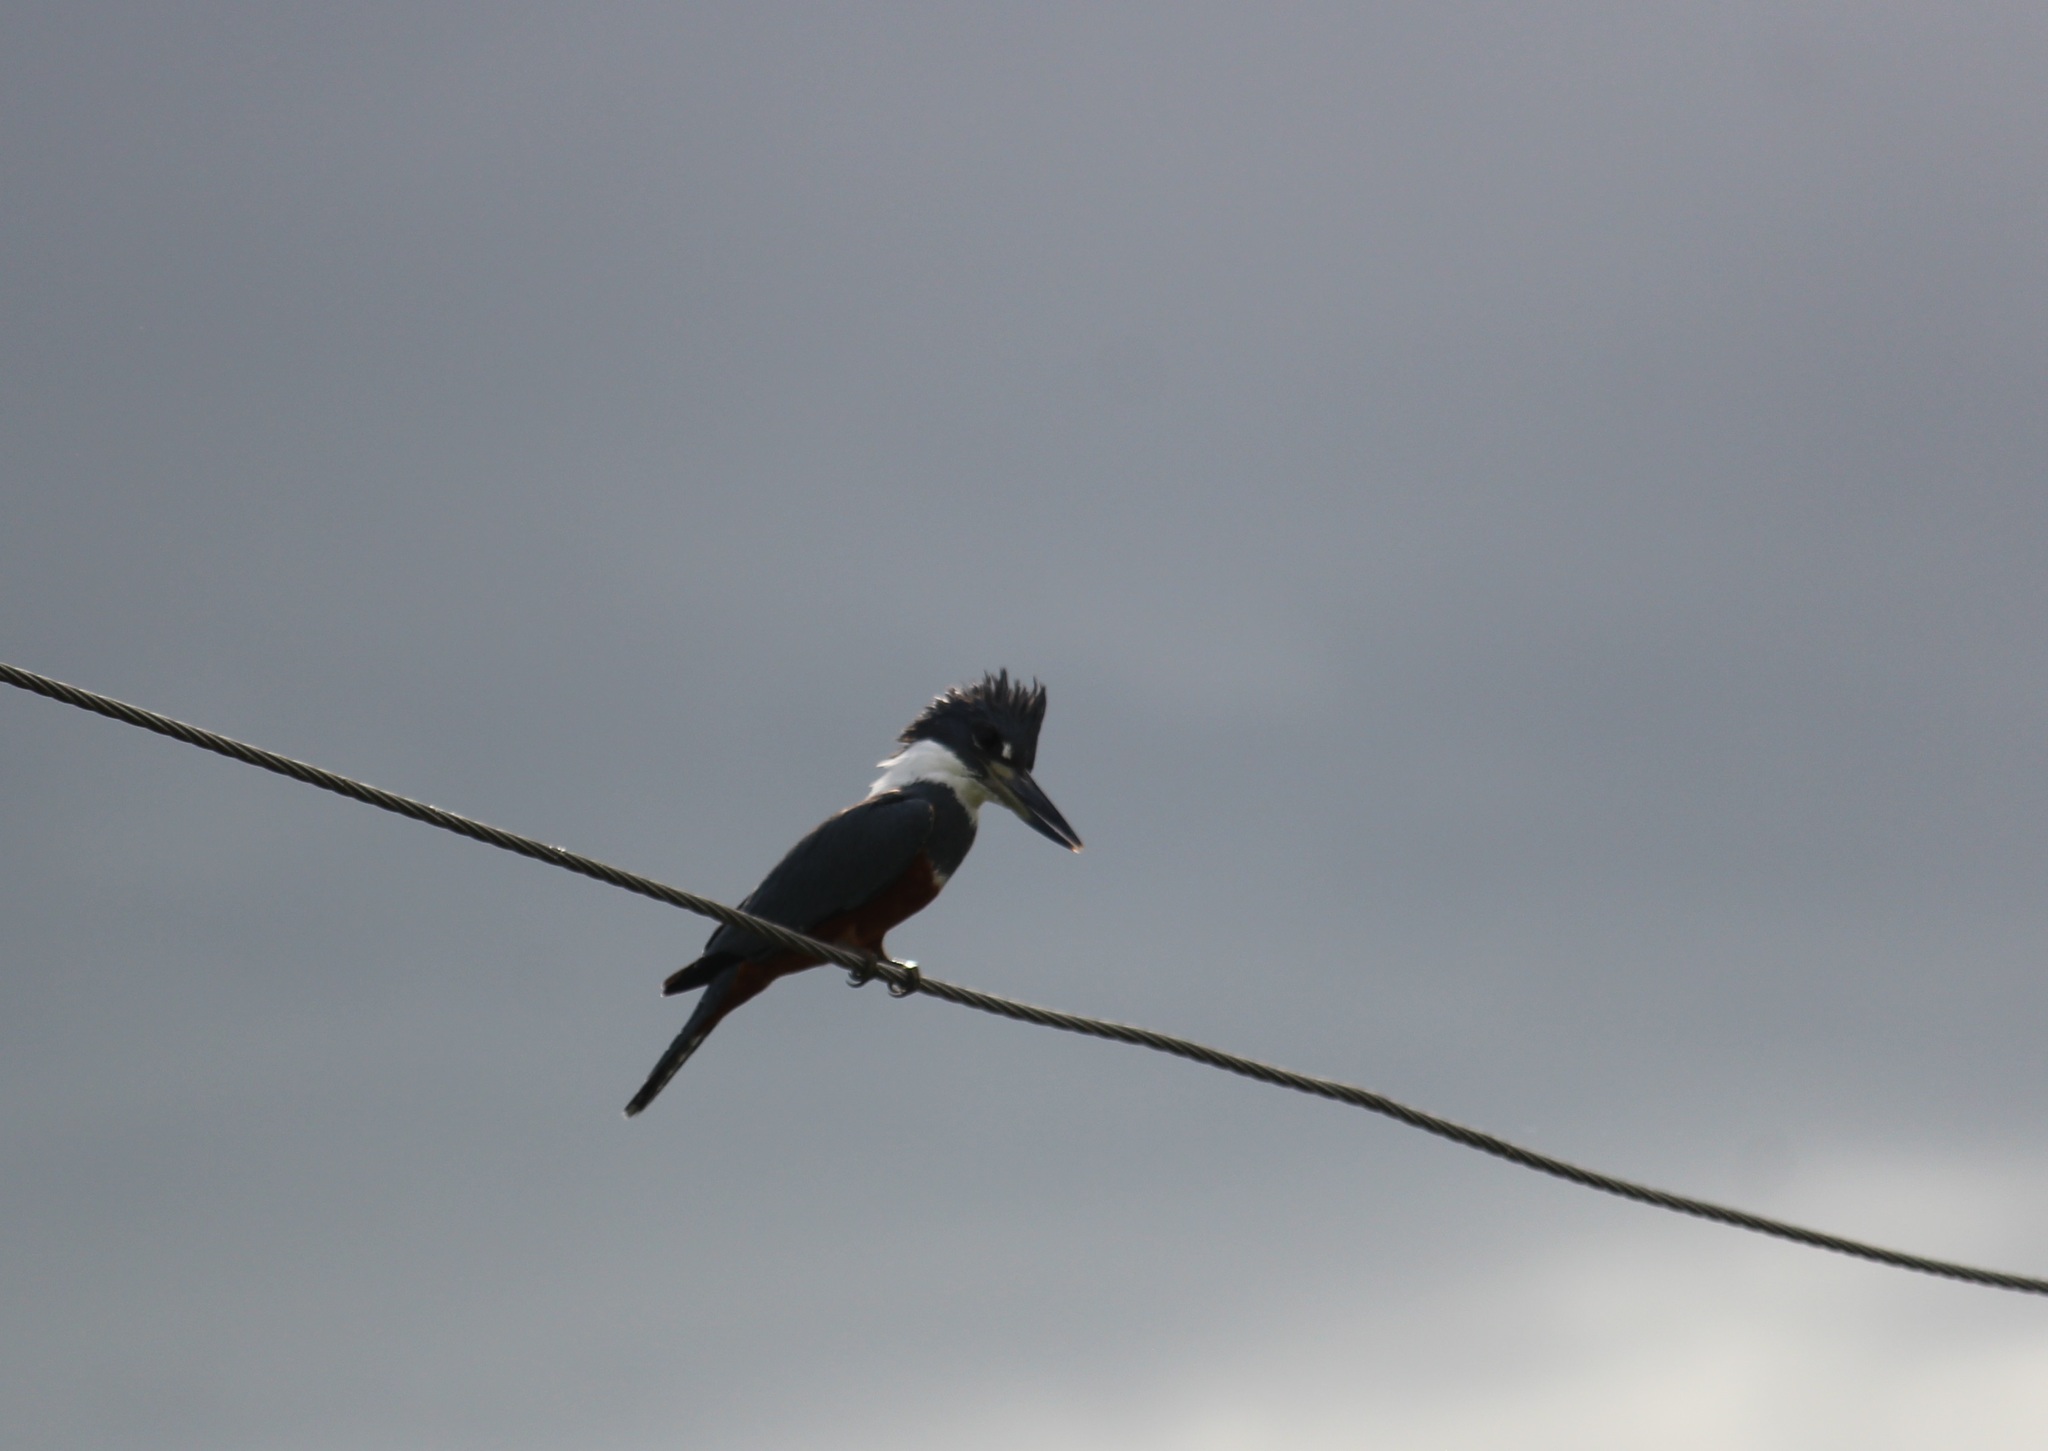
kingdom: Animalia
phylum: Chordata
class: Aves
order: Coraciiformes
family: Alcedinidae
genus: Megaceryle
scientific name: Megaceryle torquata
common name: Ringed kingfisher
